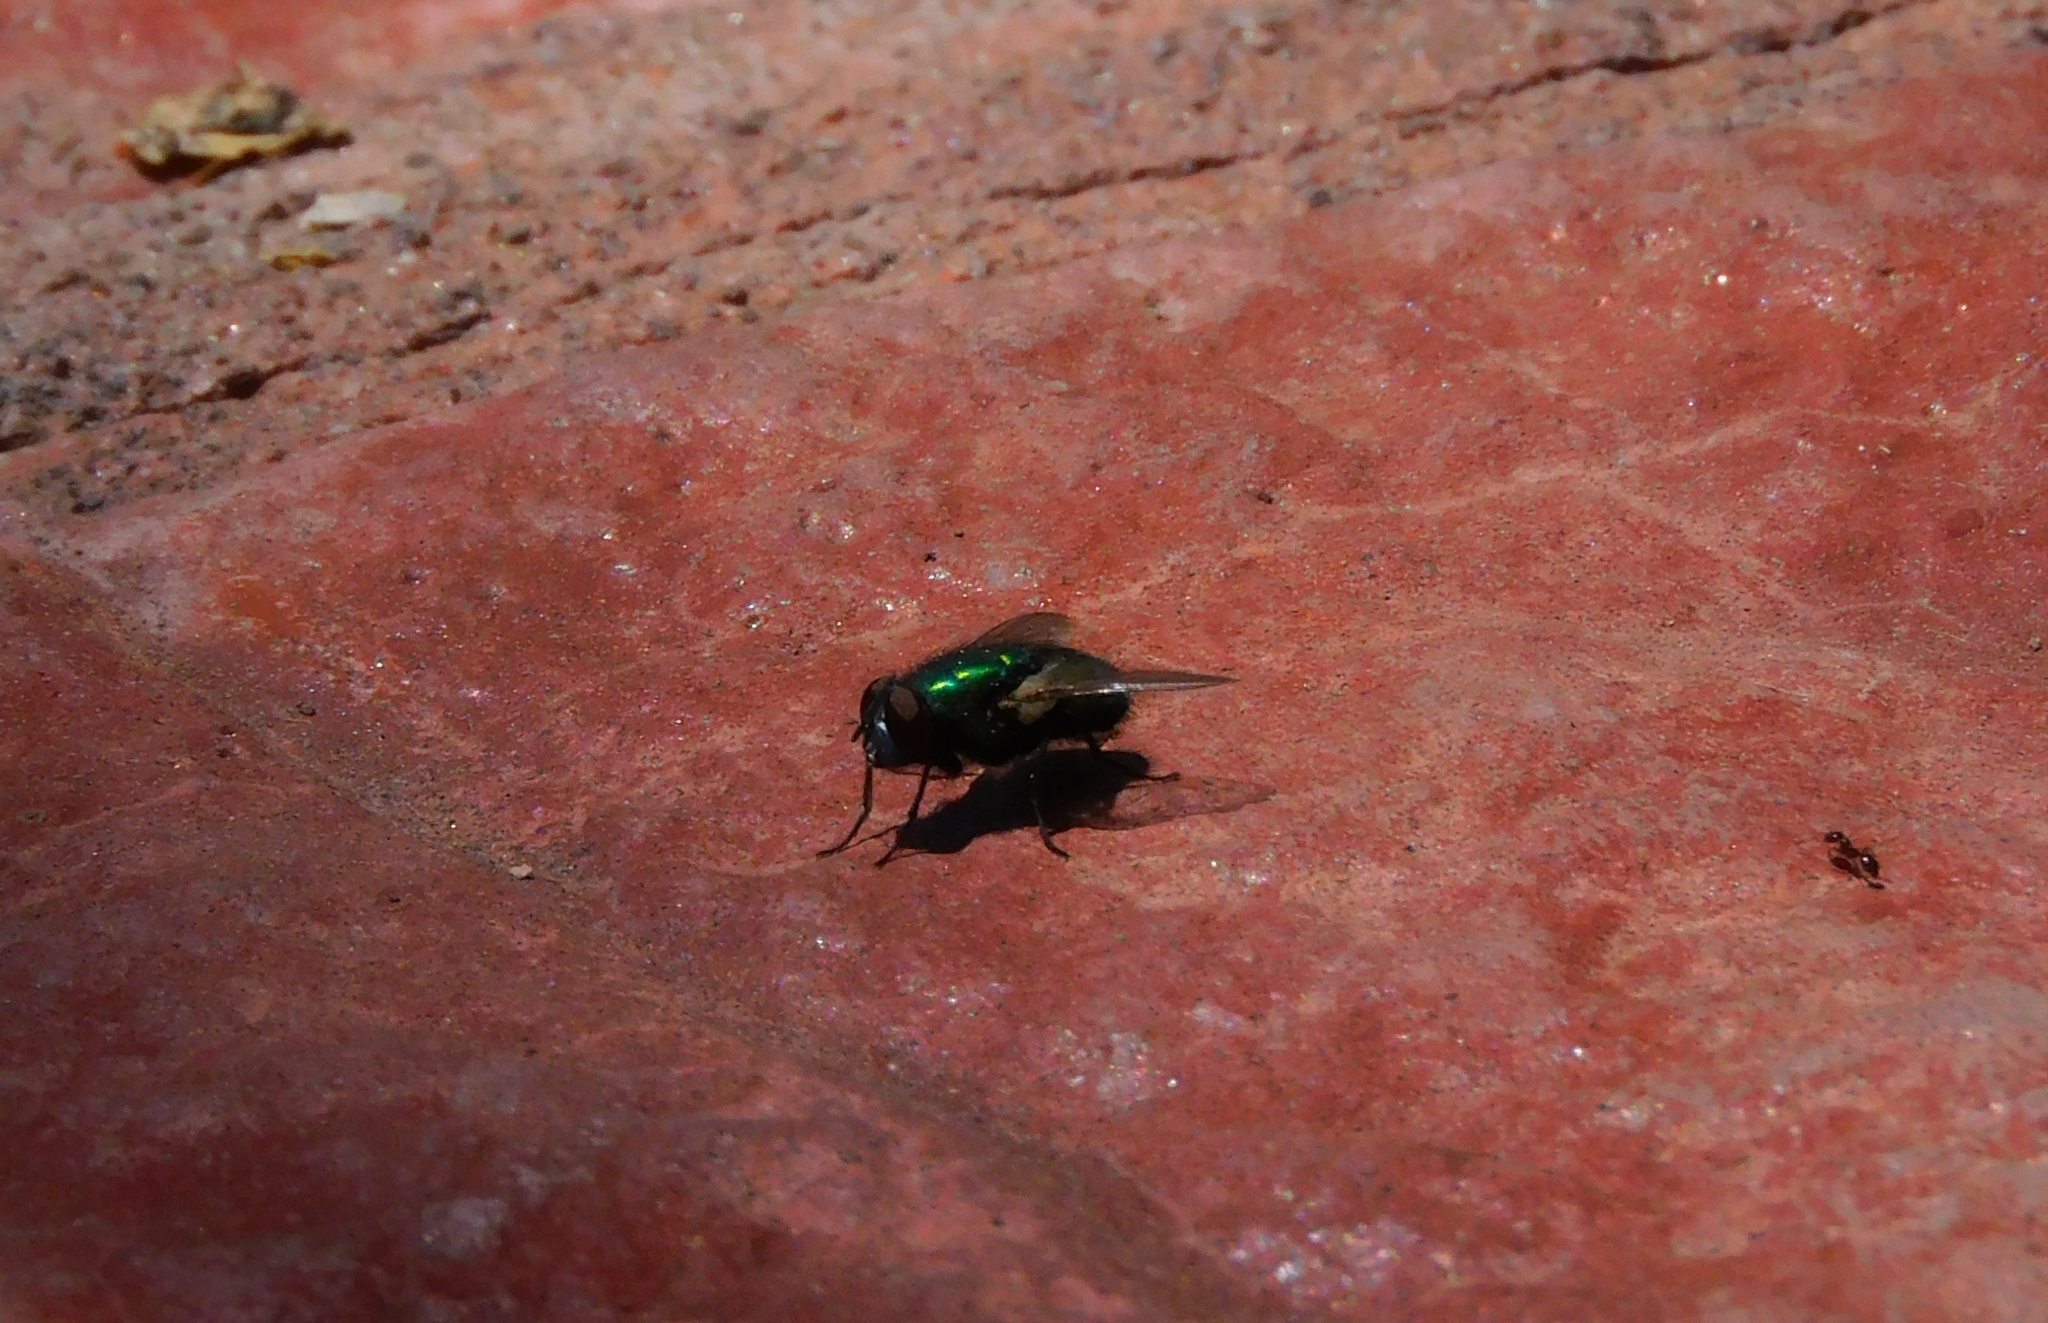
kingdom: Animalia
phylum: Arthropoda
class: Insecta
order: Diptera
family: Calliphoridae
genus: Lucilia
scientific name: Lucilia sericata
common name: Blow fly
